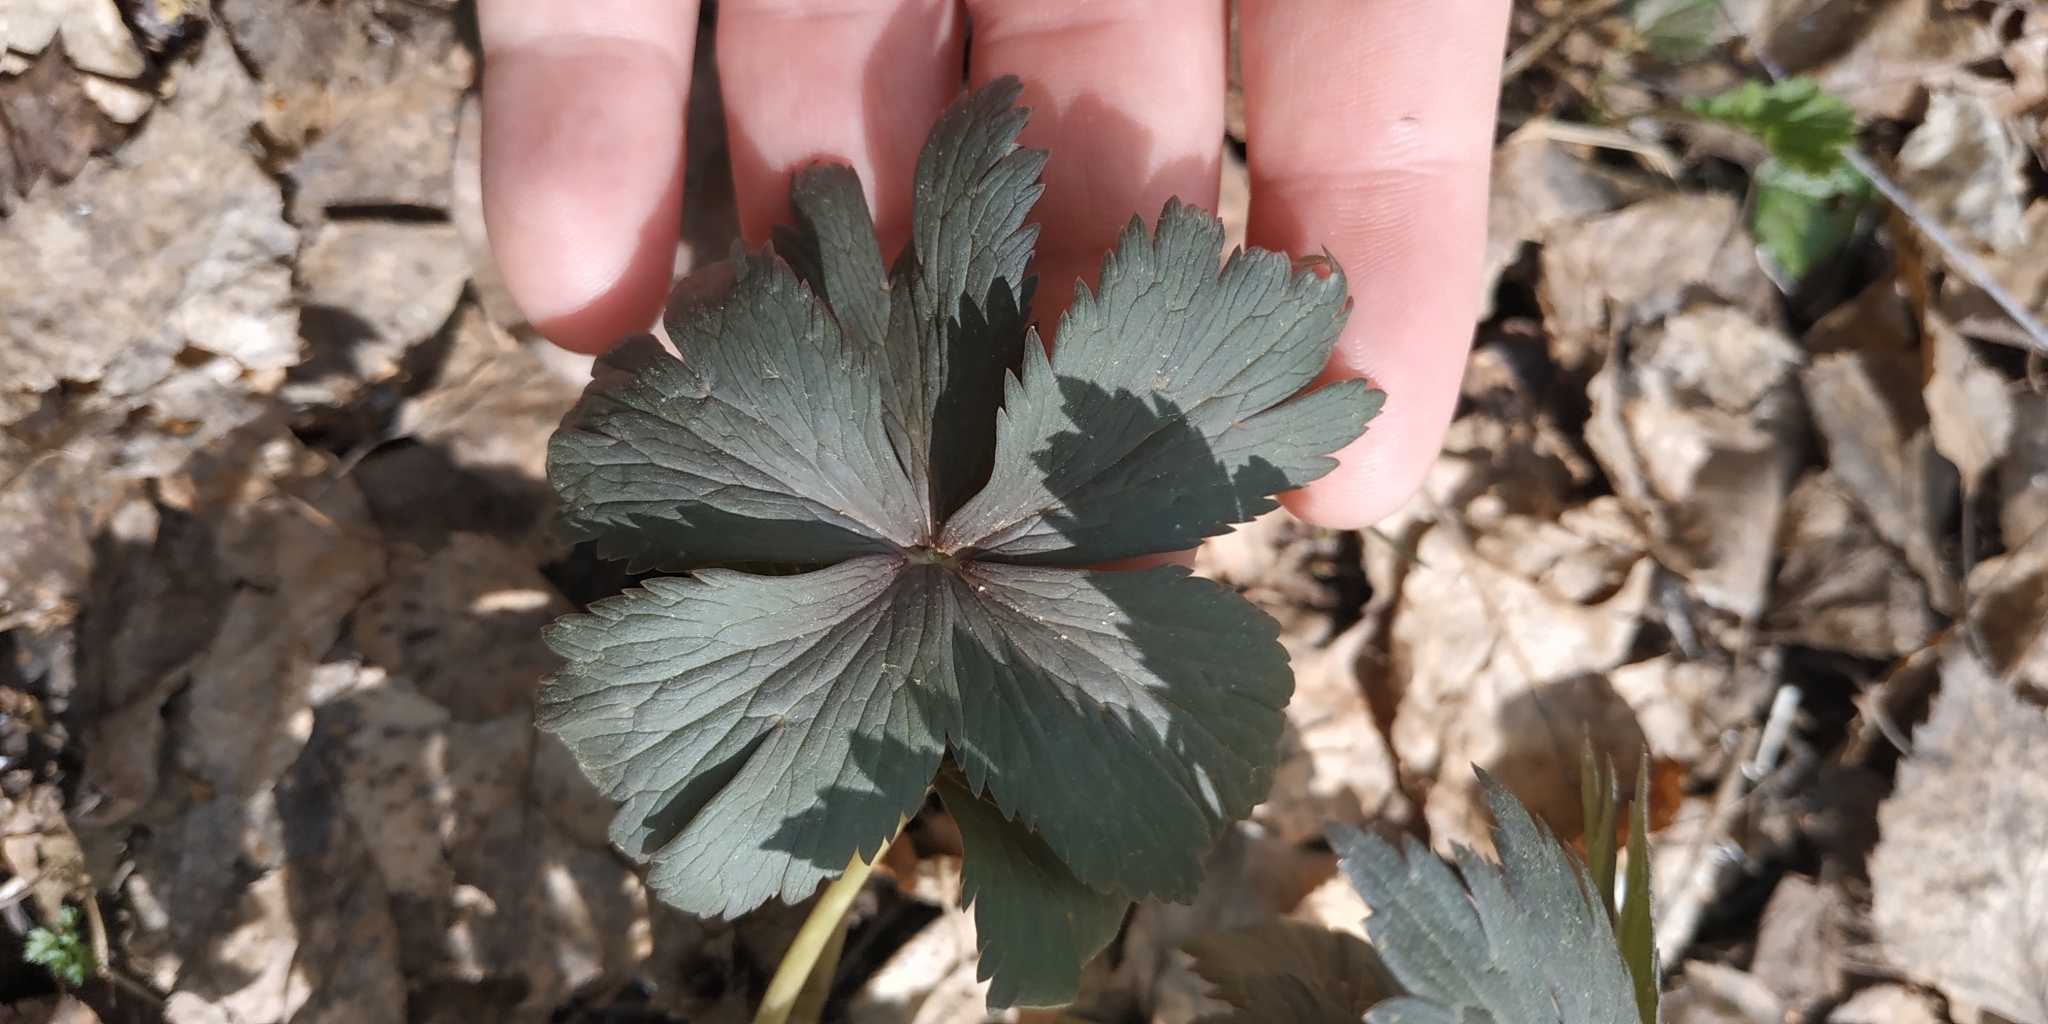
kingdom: Plantae
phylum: Tracheophyta
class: Magnoliopsida
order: Ranunculales
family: Ranunculaceae
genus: Trollius
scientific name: Trollius europaeus
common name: European globeflower
